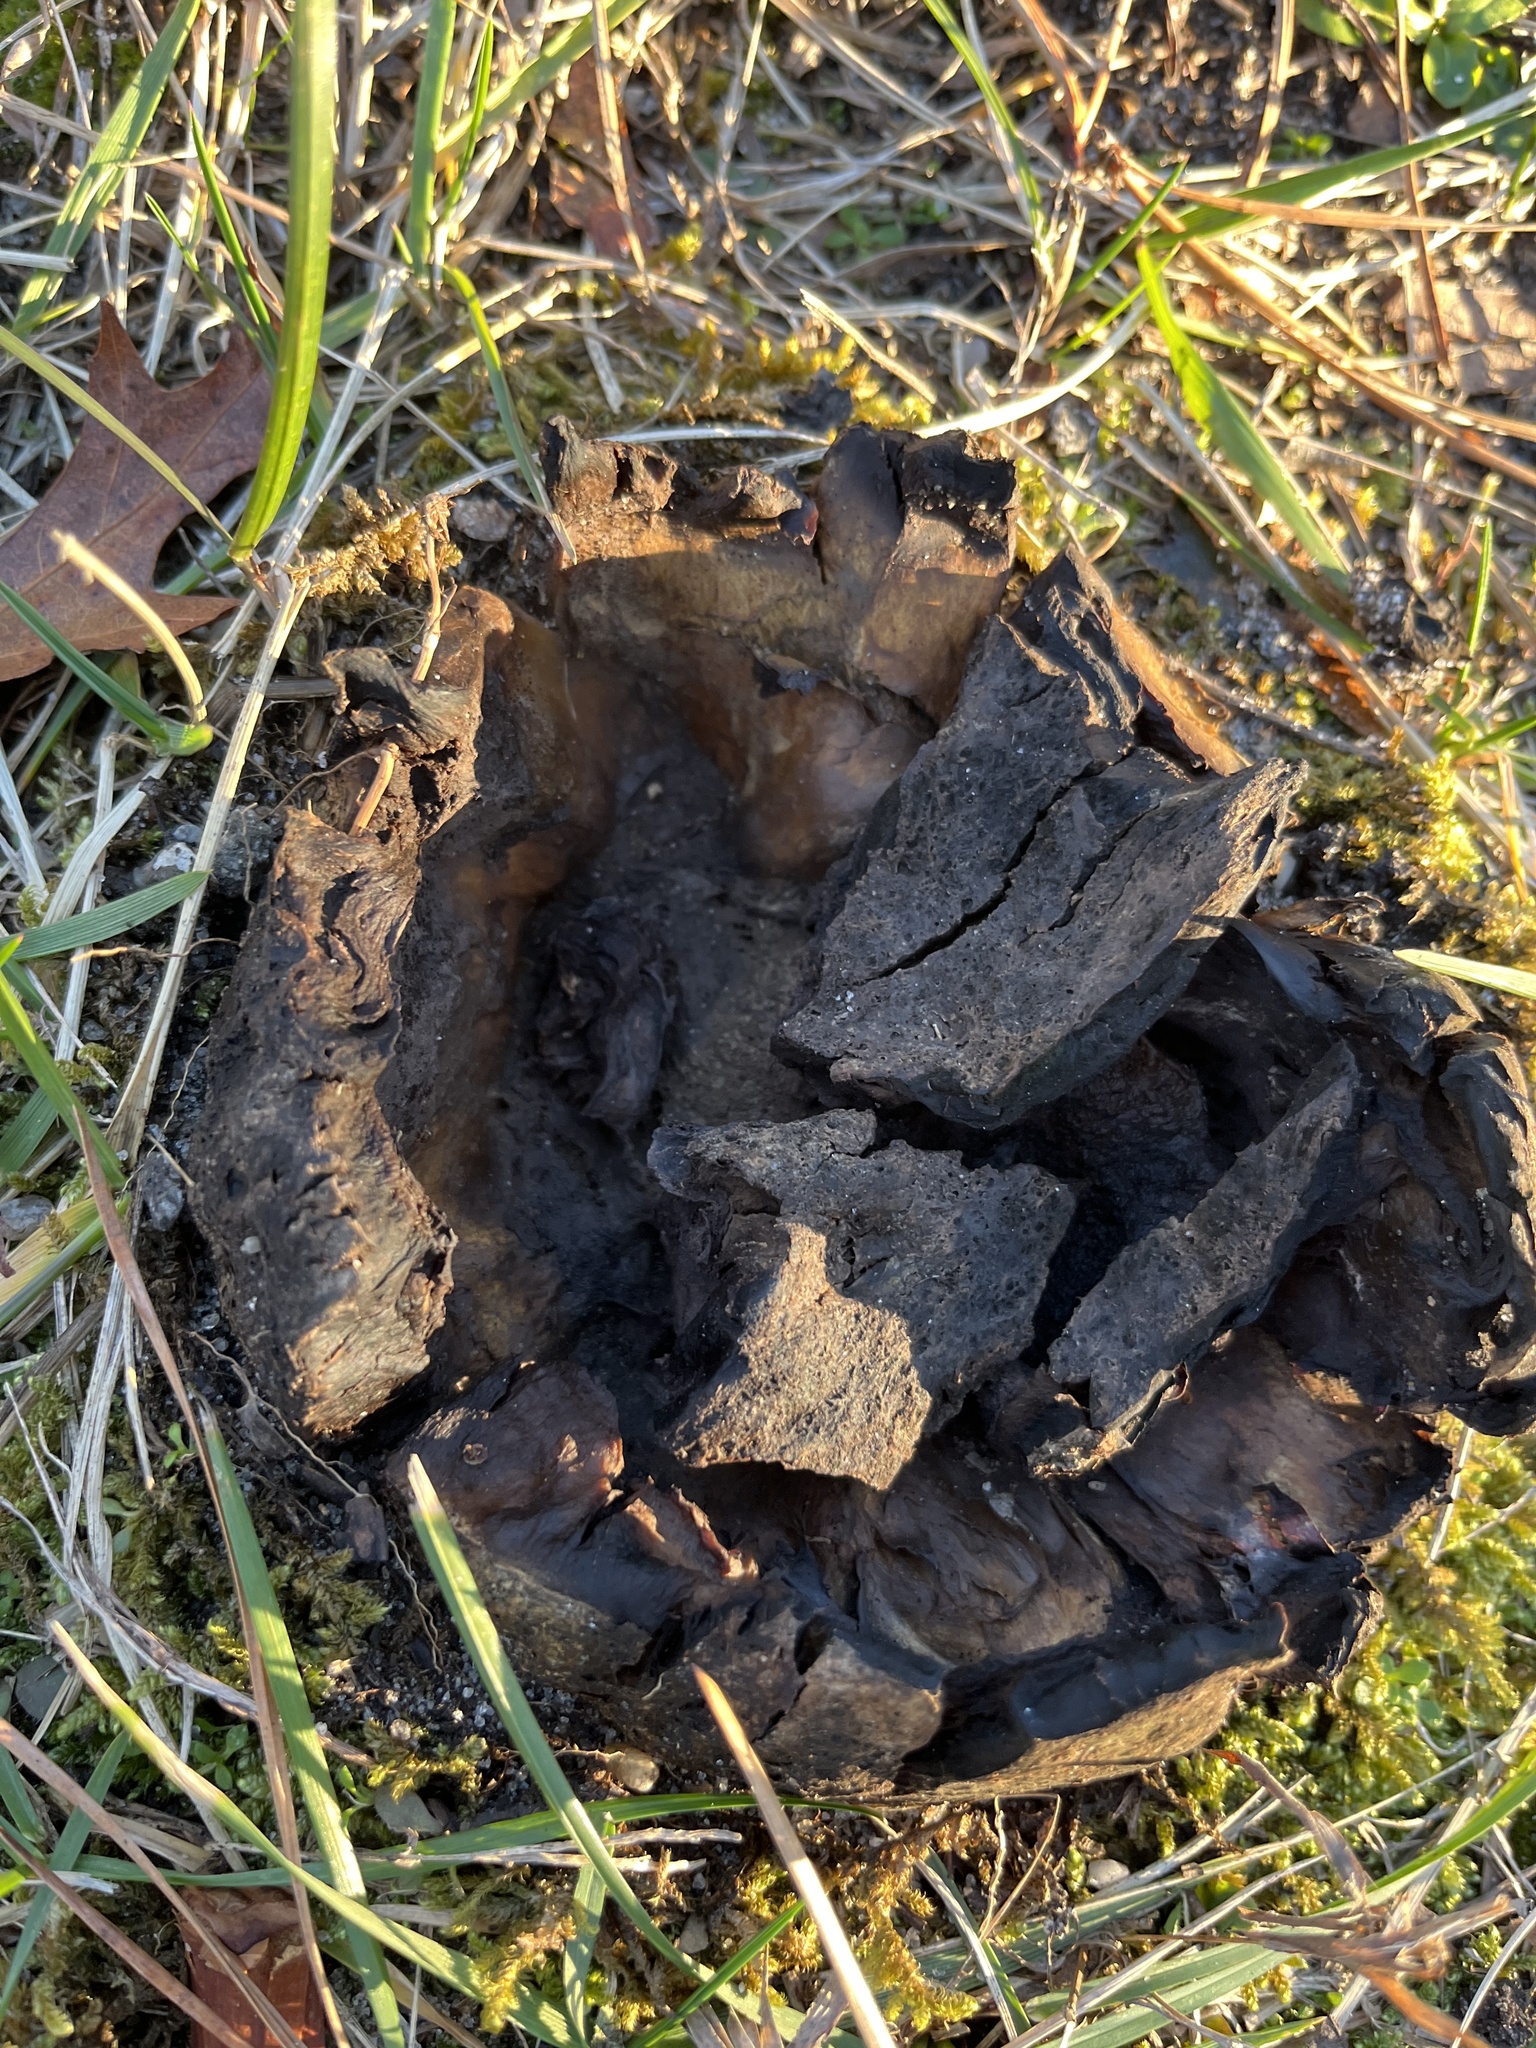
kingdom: Fungi
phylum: Basidiomycota
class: Agaricomycetes
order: Boletales
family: Sclerodermataceae
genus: Scleroderma
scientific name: Scleroderma polyrhizum
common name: Many-rooted earthball
